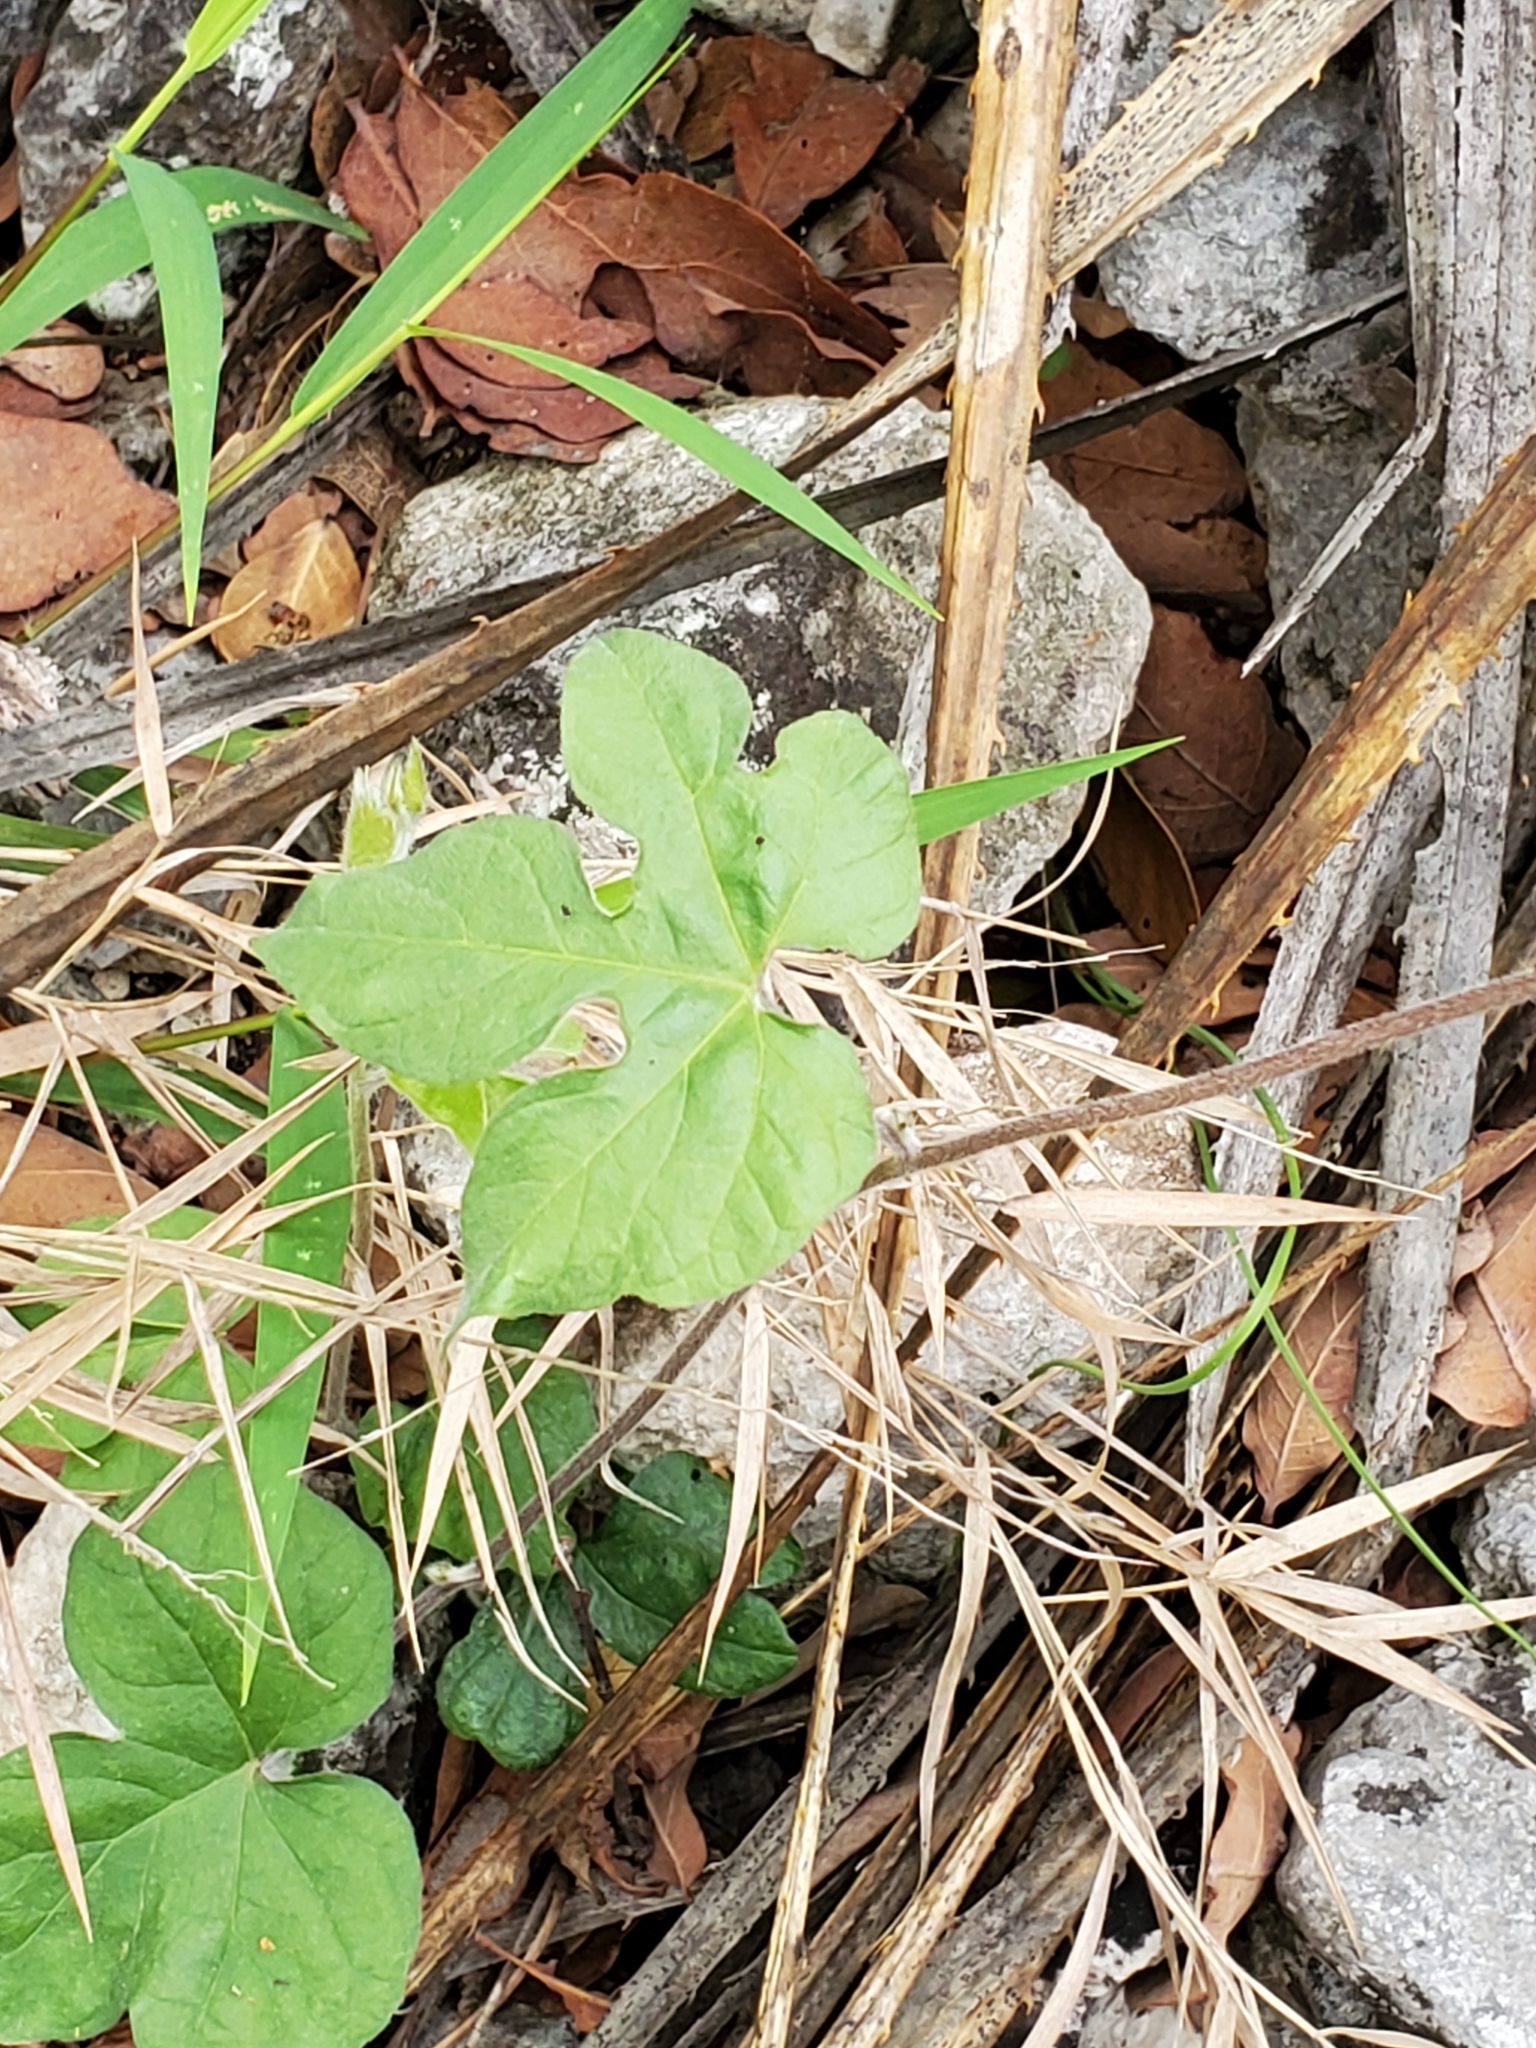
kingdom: Plantae
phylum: Tracheophyta
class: Magnoliopsida
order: Solanales
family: Convolvulaceae
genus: Ipomoea
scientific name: Ipomoea lindheimeri
